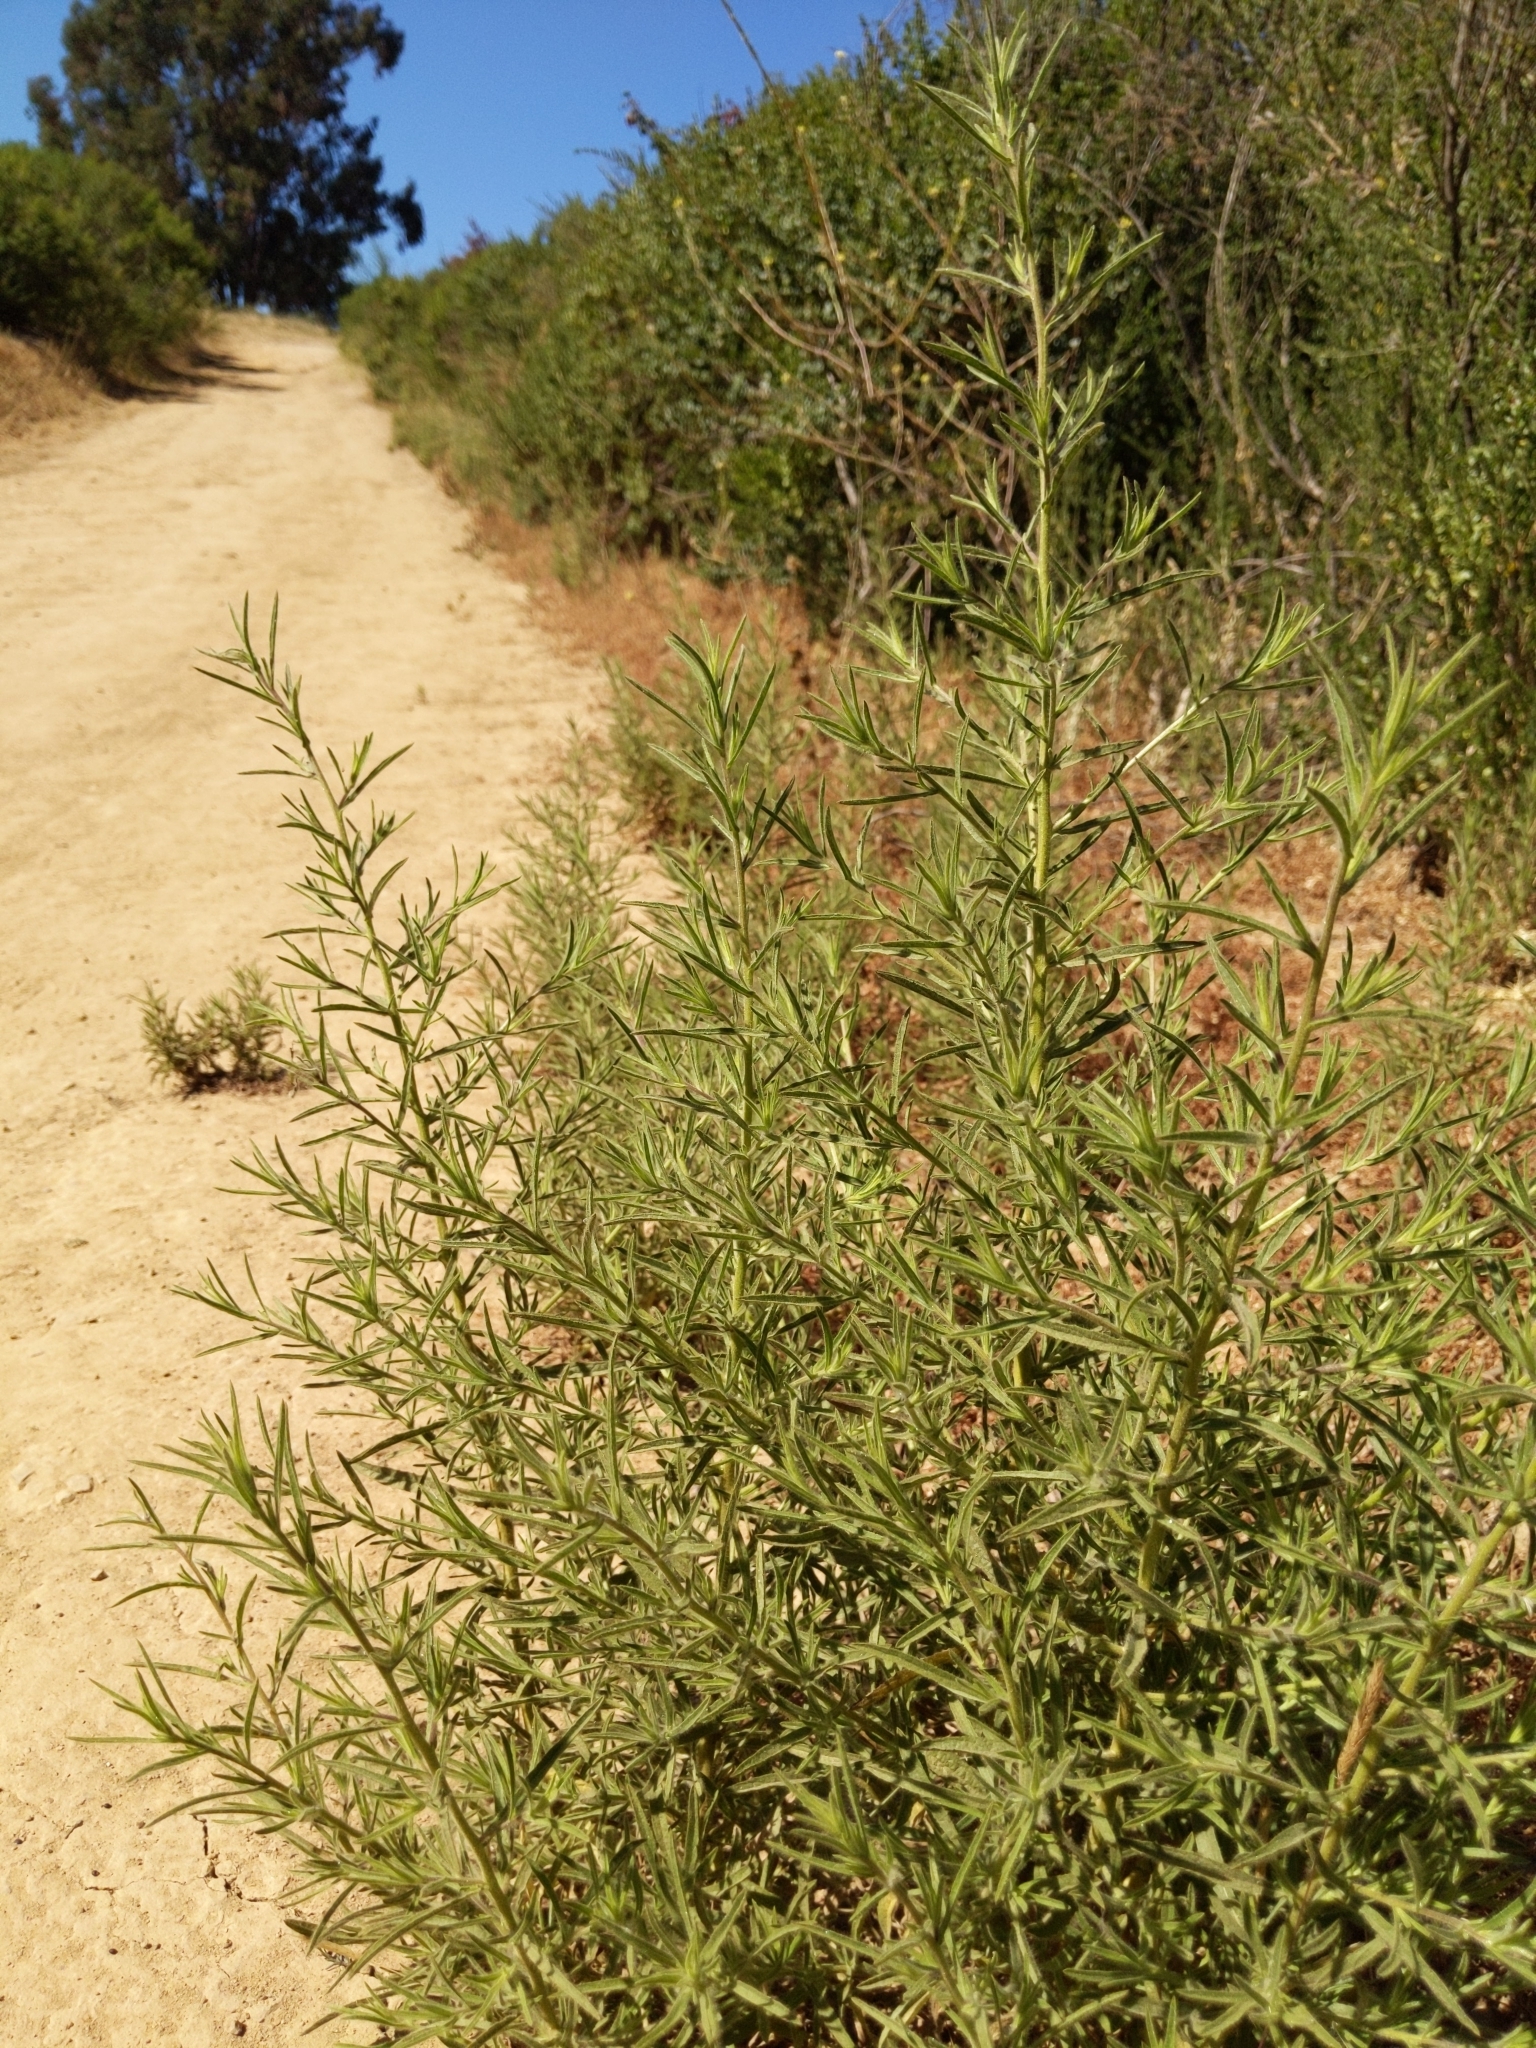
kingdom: Plantae
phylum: Tracheophyta
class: Magnoliopsida
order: Asterales
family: Asteraceae
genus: Dittrichia
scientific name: Dittrichia graveolens
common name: Stinking fleabane
